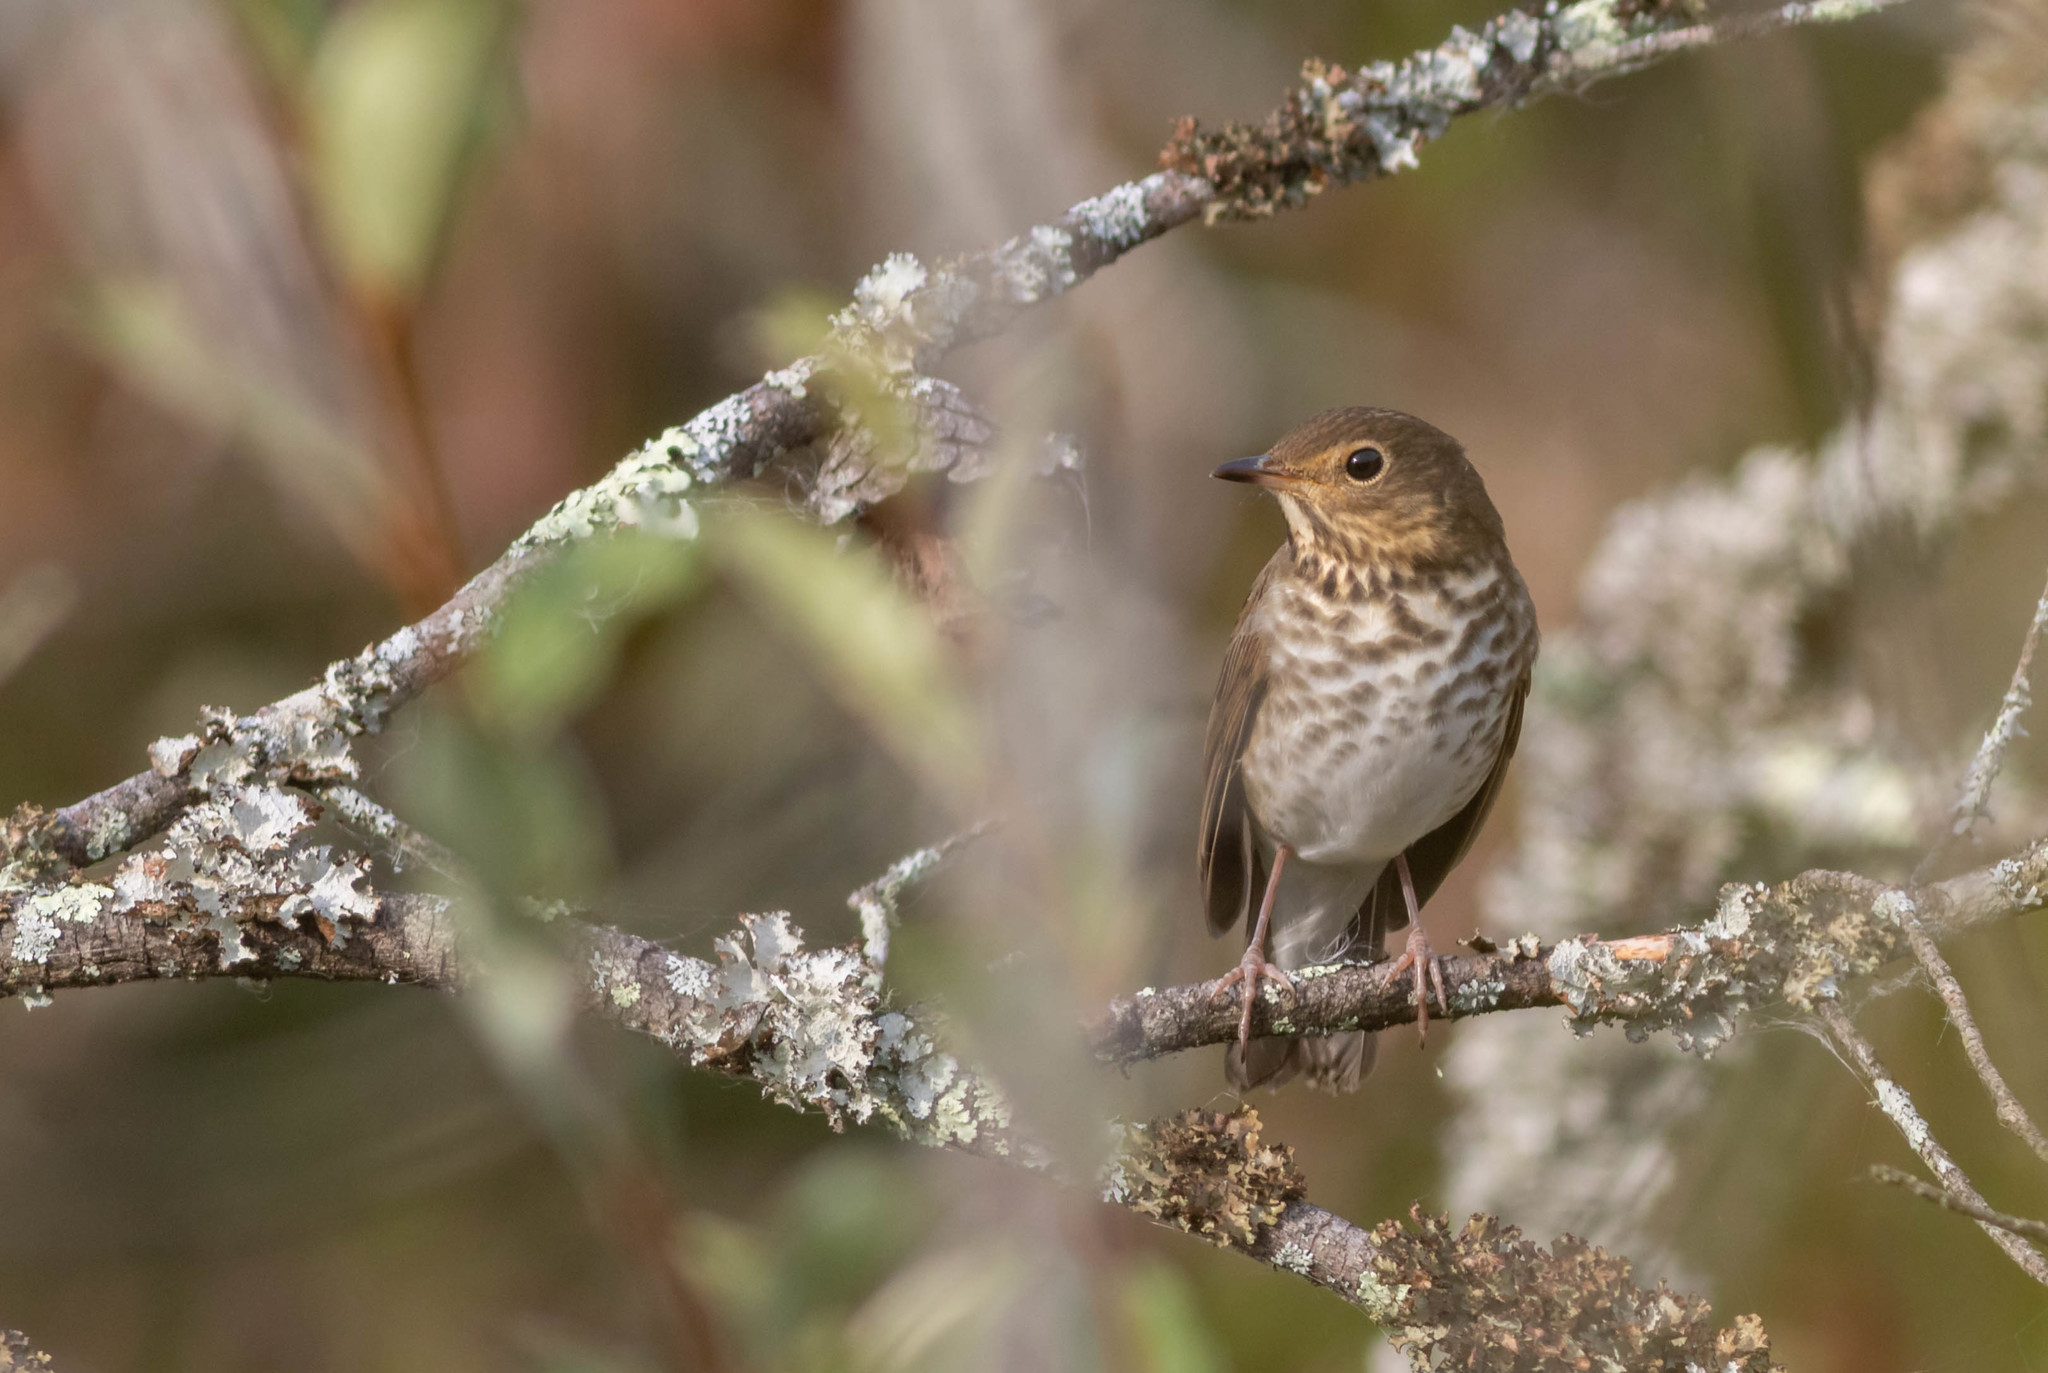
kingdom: Animalia
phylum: Chordata
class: Aves
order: Passeriformes
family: Turdidae
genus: Catharus
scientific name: Catharus ustulatus
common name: Swainson's thrush
